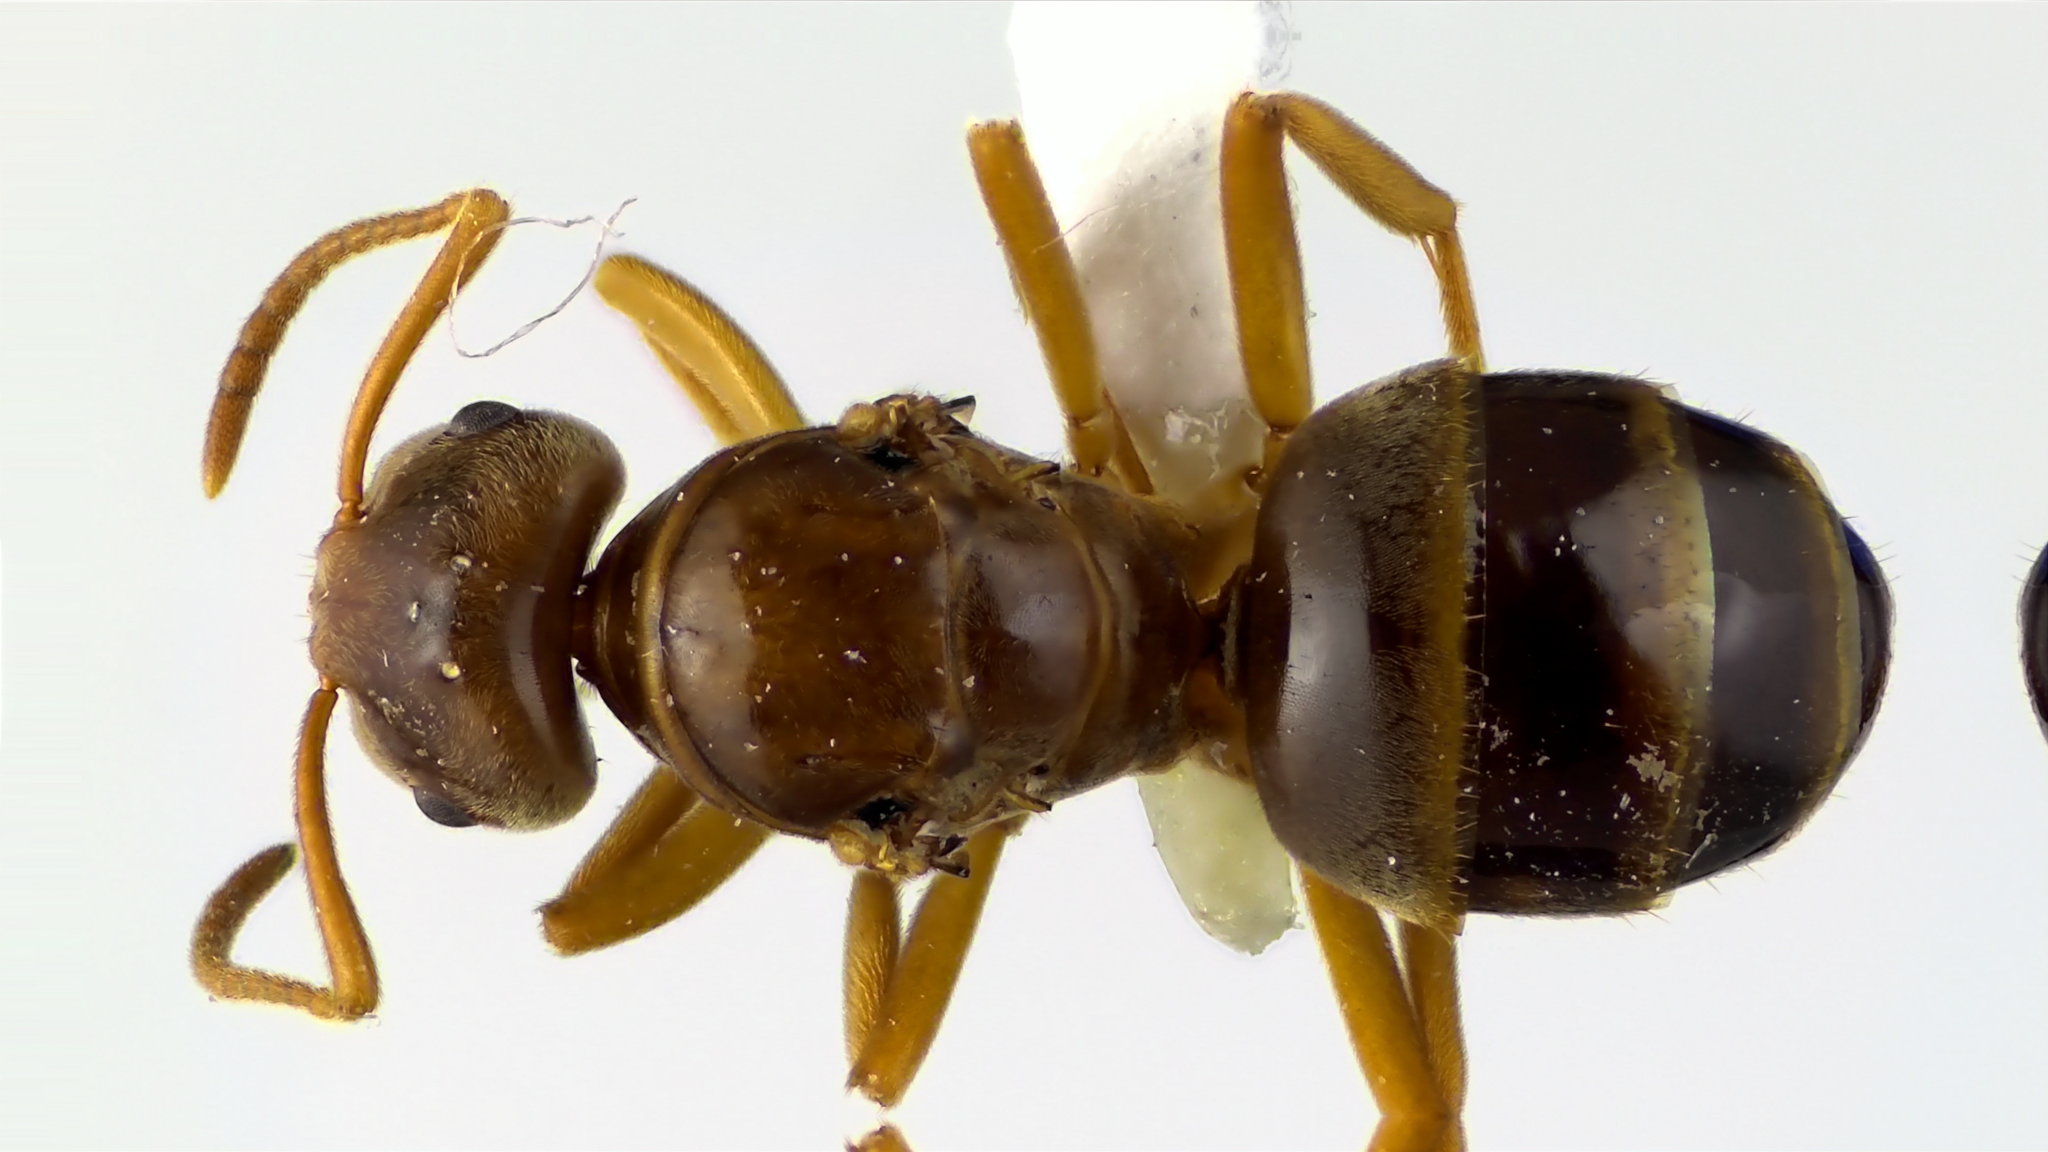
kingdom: Animalia
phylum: Arthropoda
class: Insecta
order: Hymenoptera
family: Formicidae
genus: Lasius
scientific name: Lasius speculiventris
